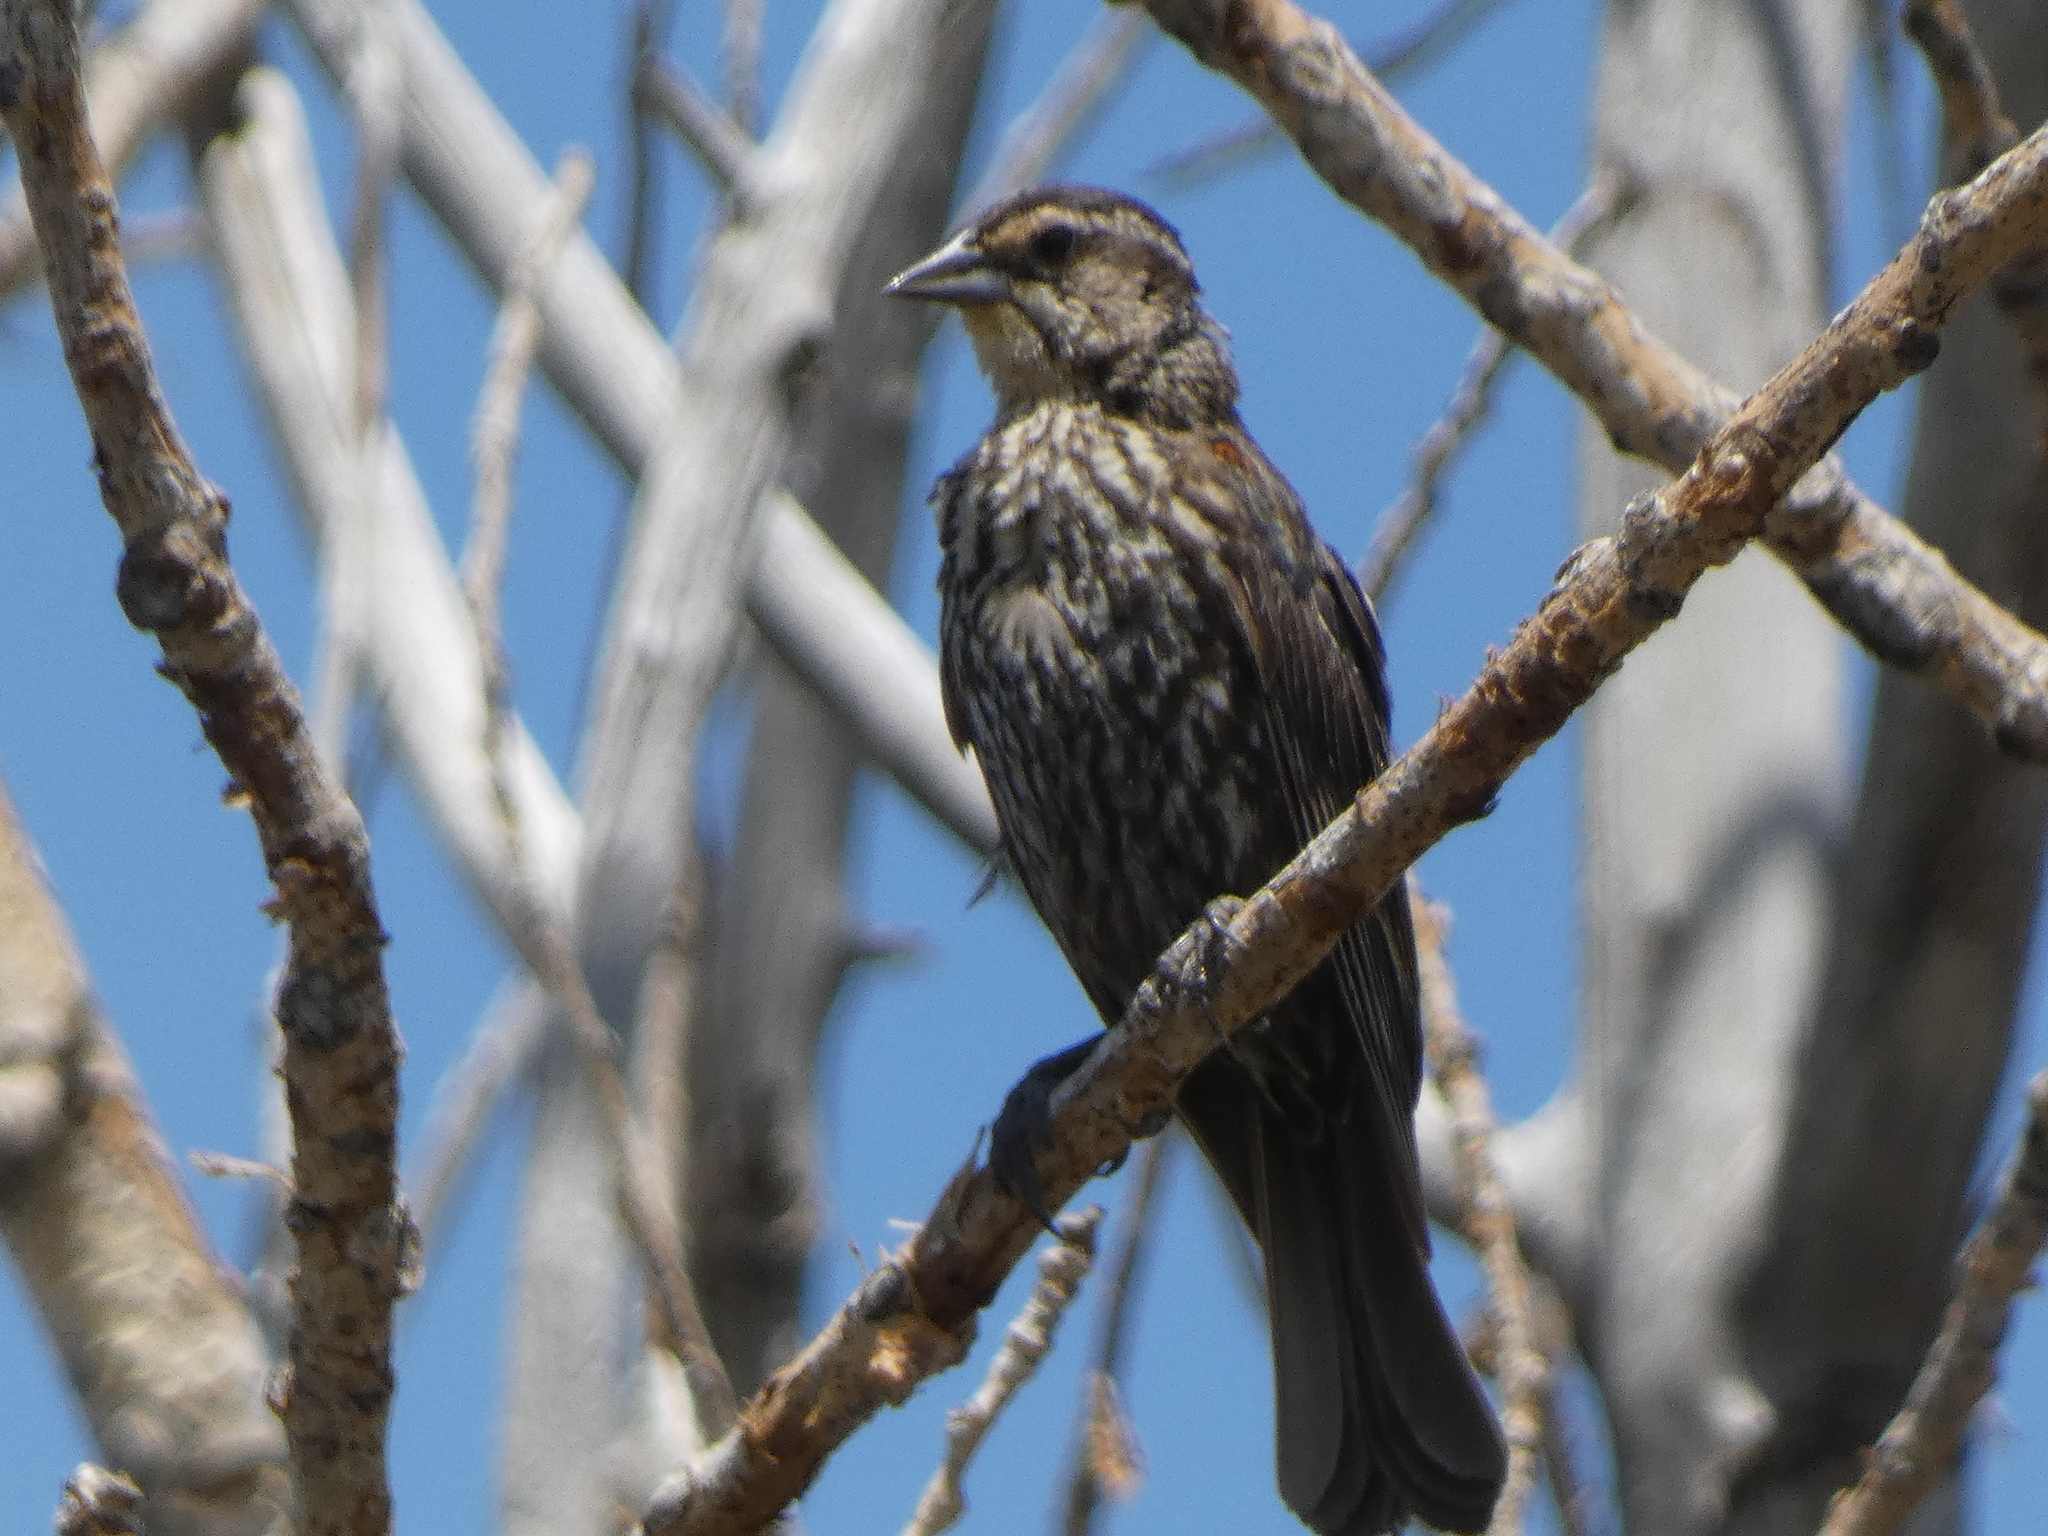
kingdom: Animalia
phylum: Chordata
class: Aves
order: Passeriformes
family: Icteridae
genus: Agelaius
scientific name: Agelaius phoeniceus
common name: Red-winged blackbird
